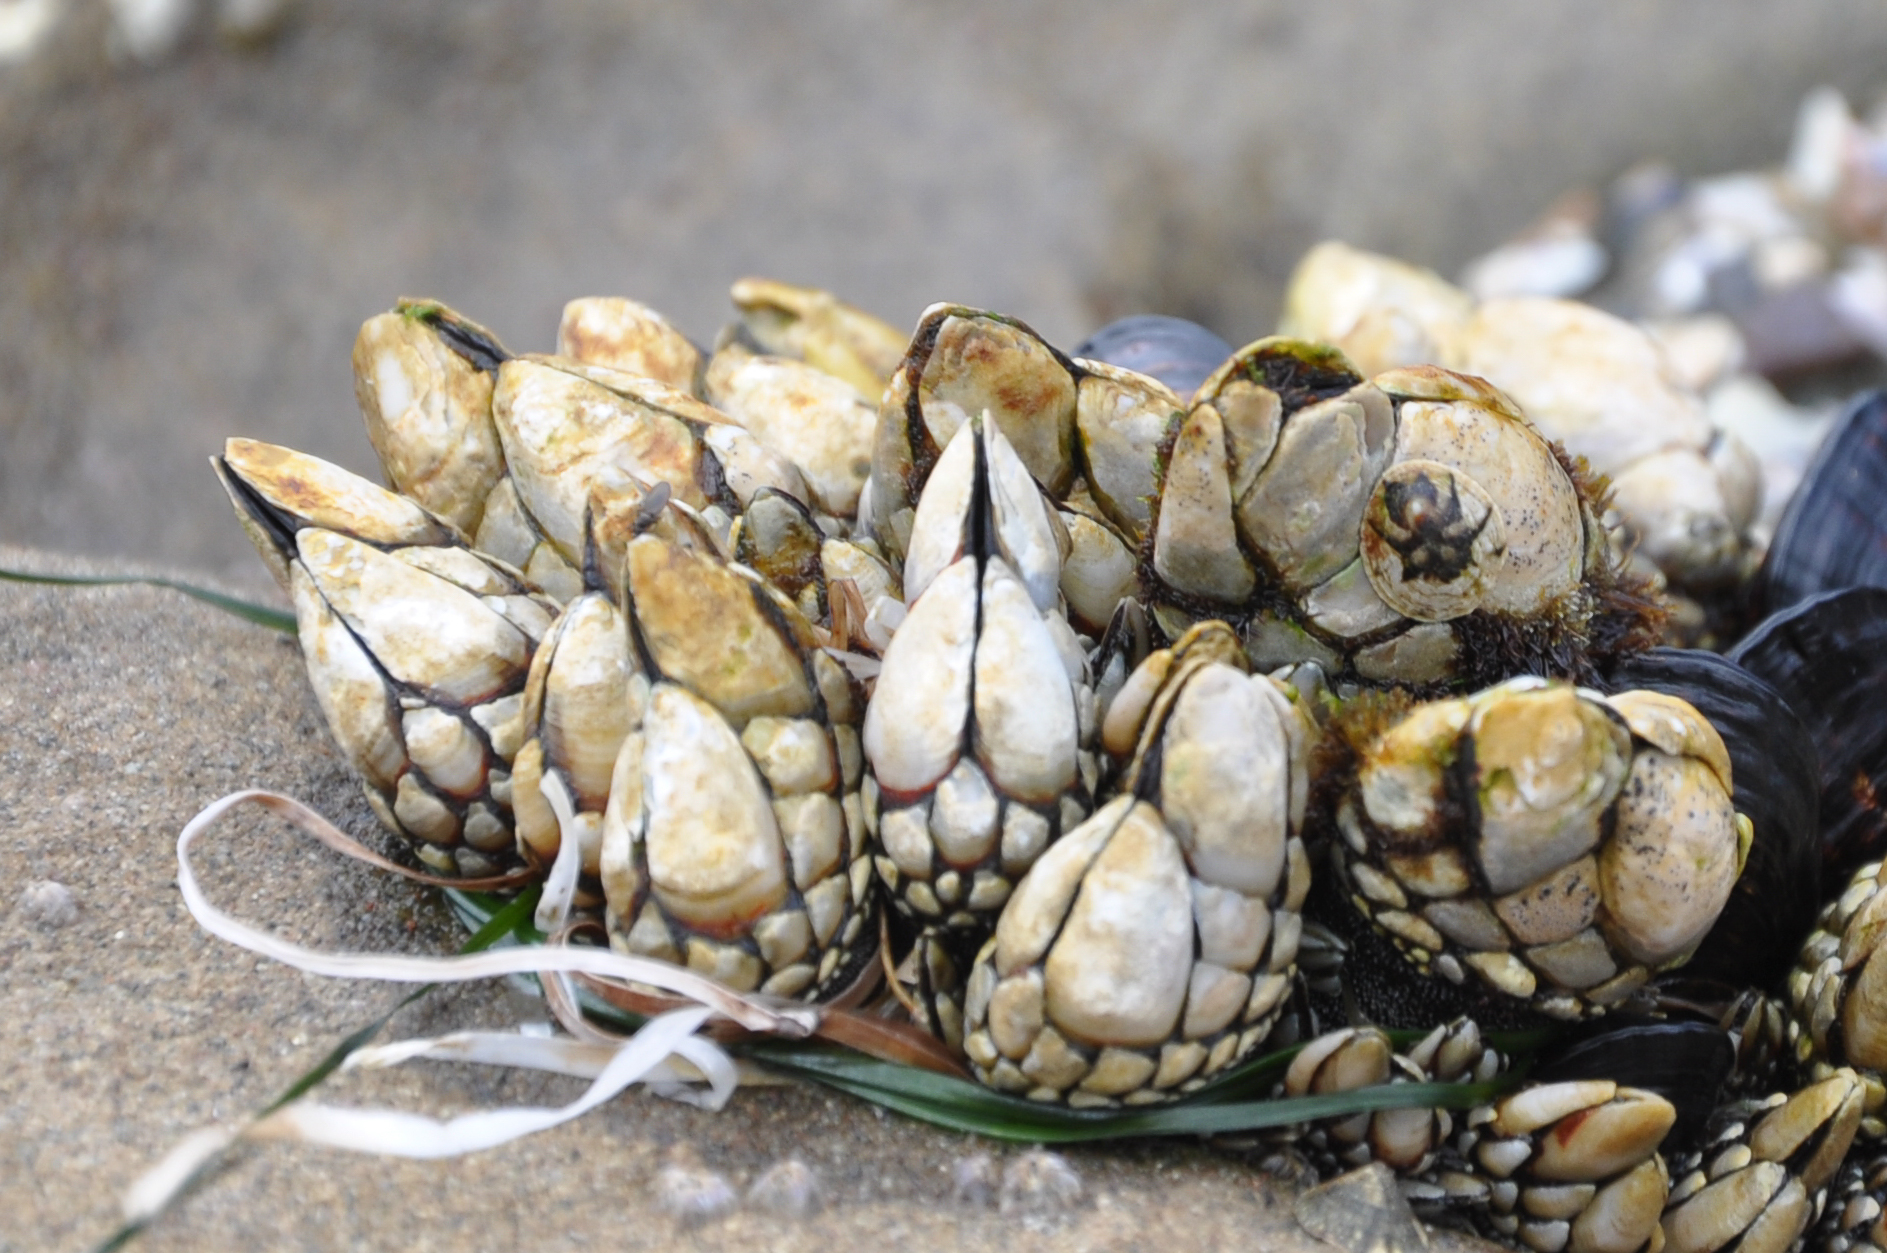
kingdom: Animalia
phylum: Arthropoda
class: Maxillopoda
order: Pedunculata
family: Pollicipedidae
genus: Pollicipes
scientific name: Pollicipes polymerus
